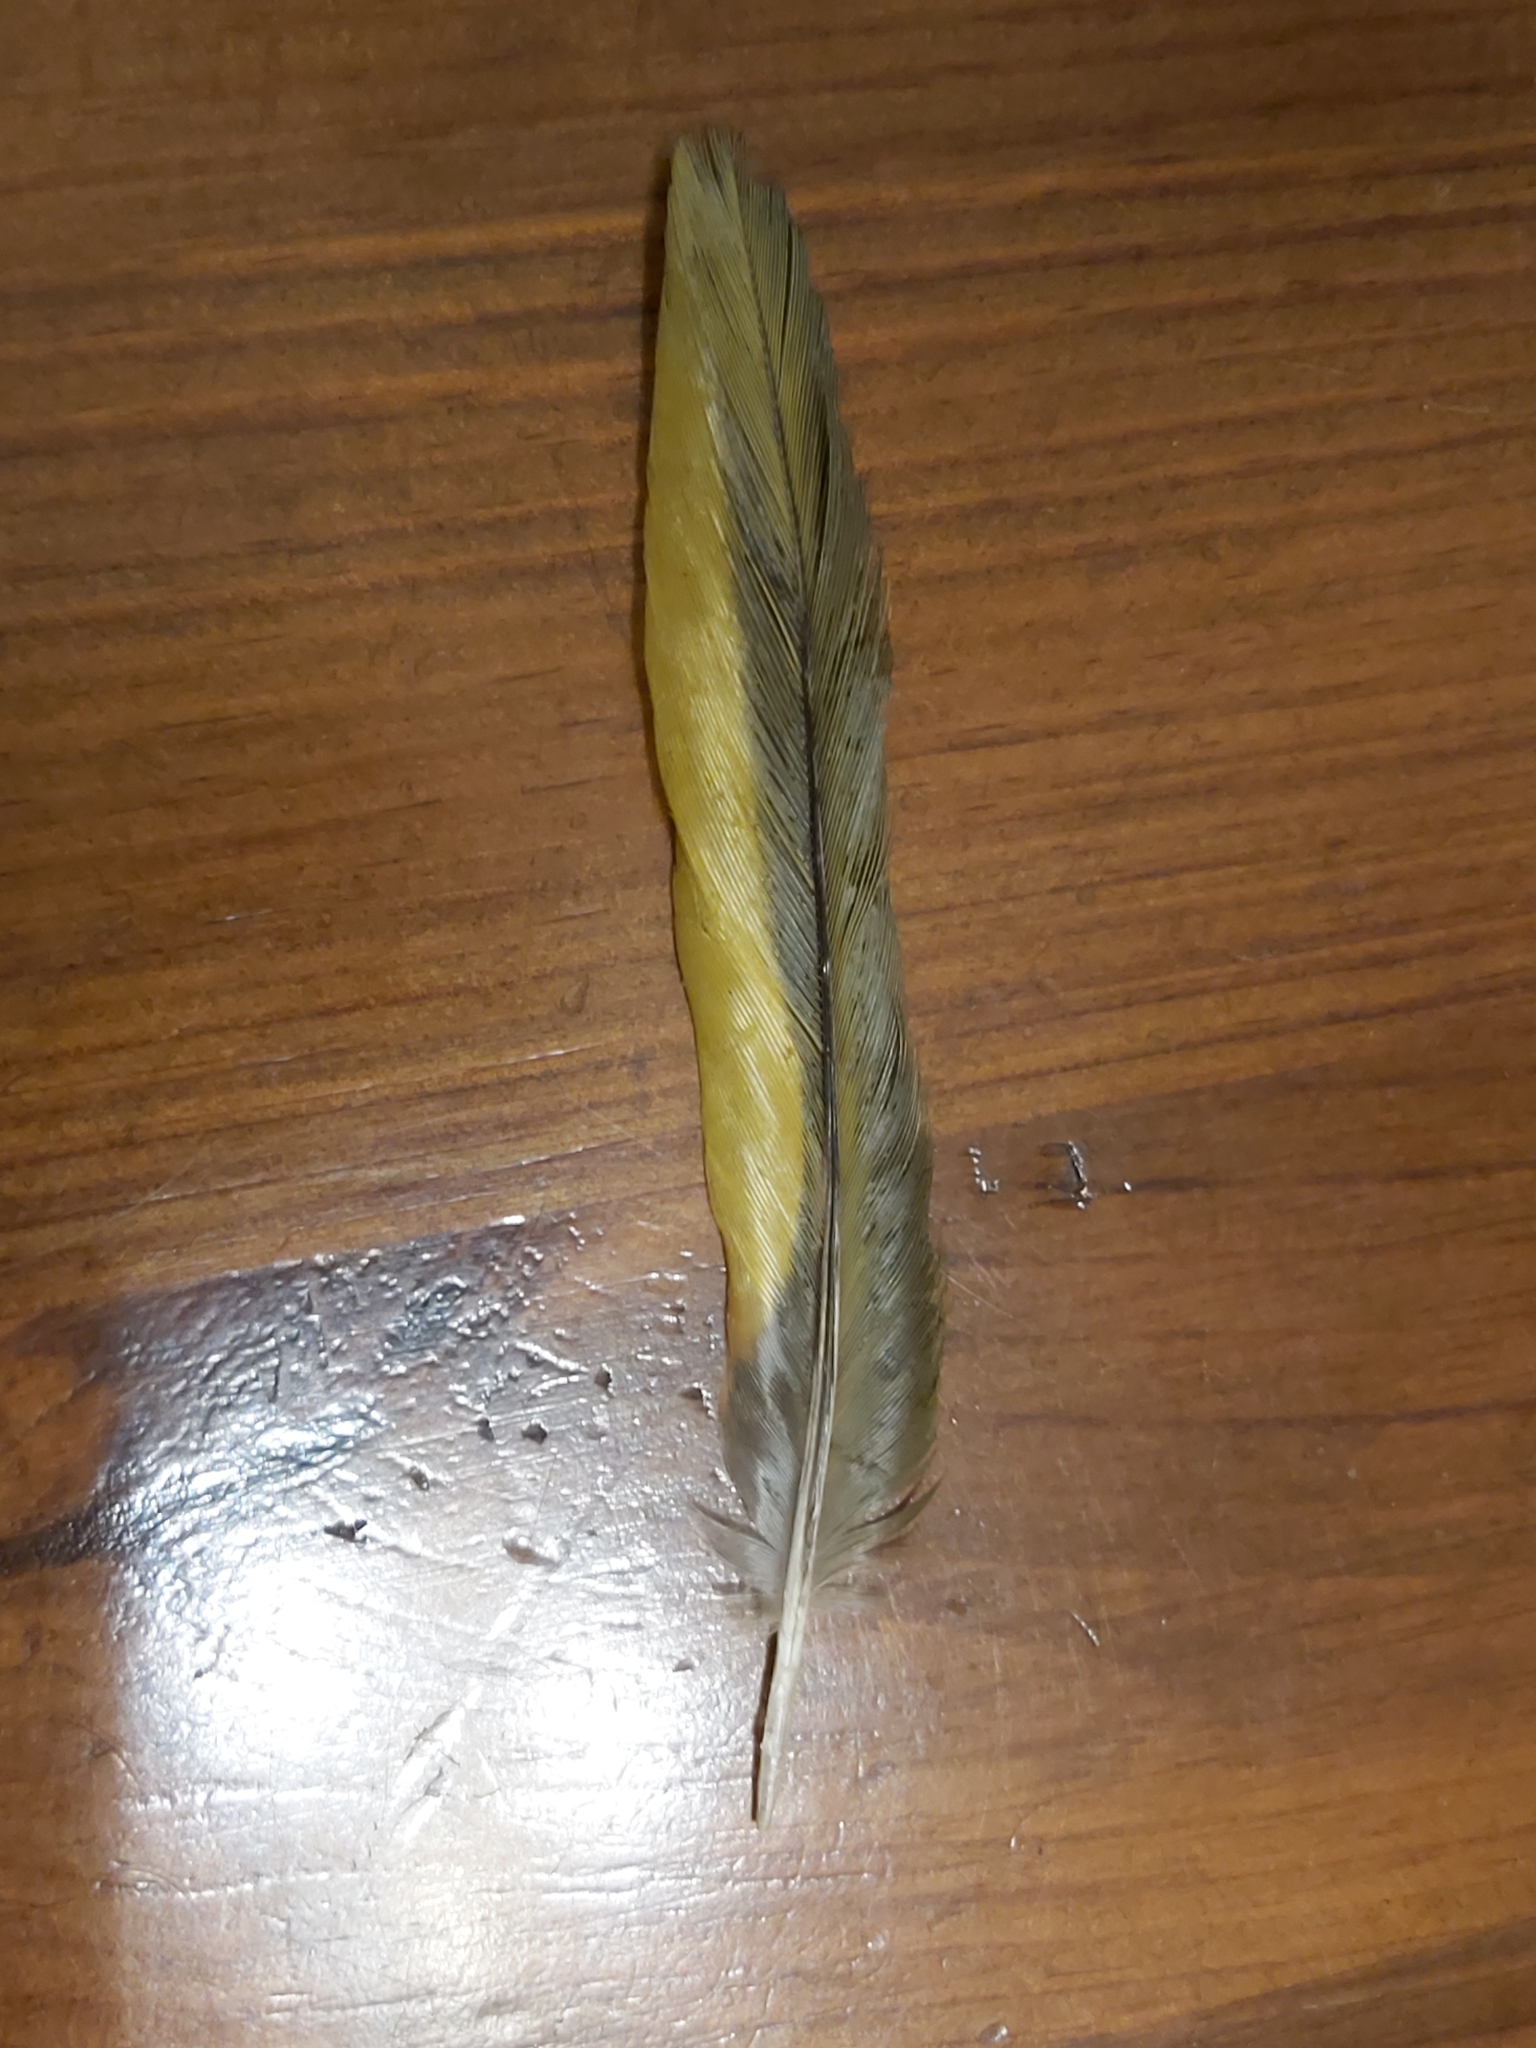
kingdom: Animalia
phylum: Chordata
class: Aves
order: Psittaciformes
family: Psittacidae
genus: Trichoglossus
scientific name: Trichoglossus haematodus
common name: Coconut lorikeet
